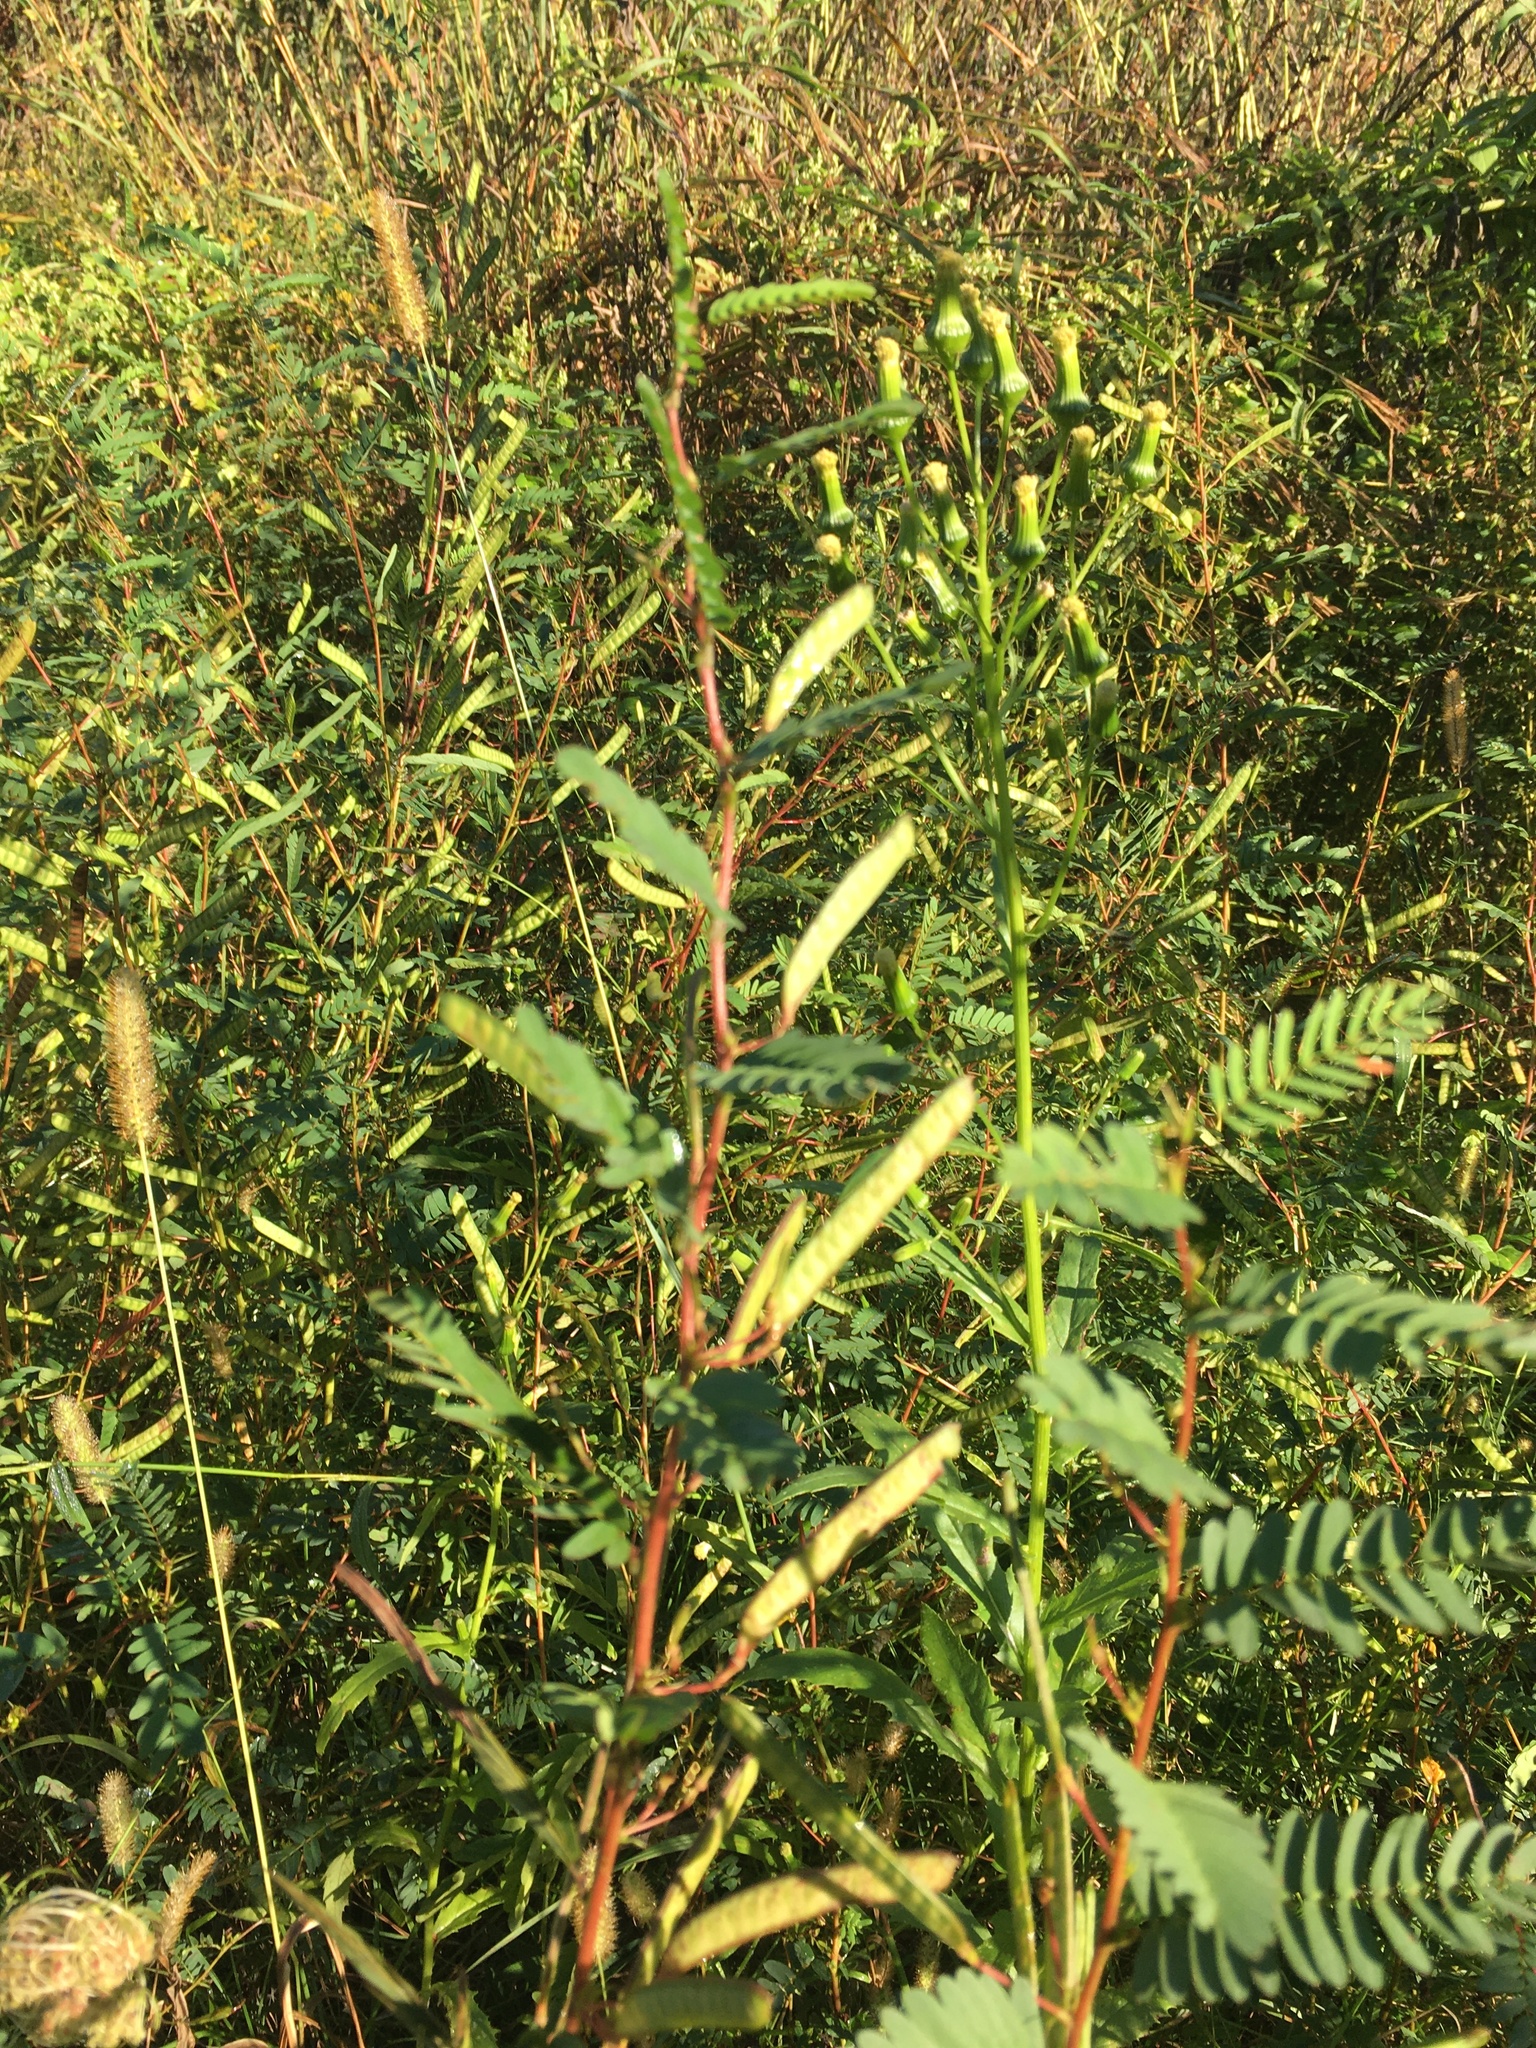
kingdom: Plantae
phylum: Tracheophyta
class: Magnoliopsida
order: Fabales
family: Fabaceae
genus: Chamaecrista
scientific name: Chamaecrista fasciculata
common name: Golden cassia
